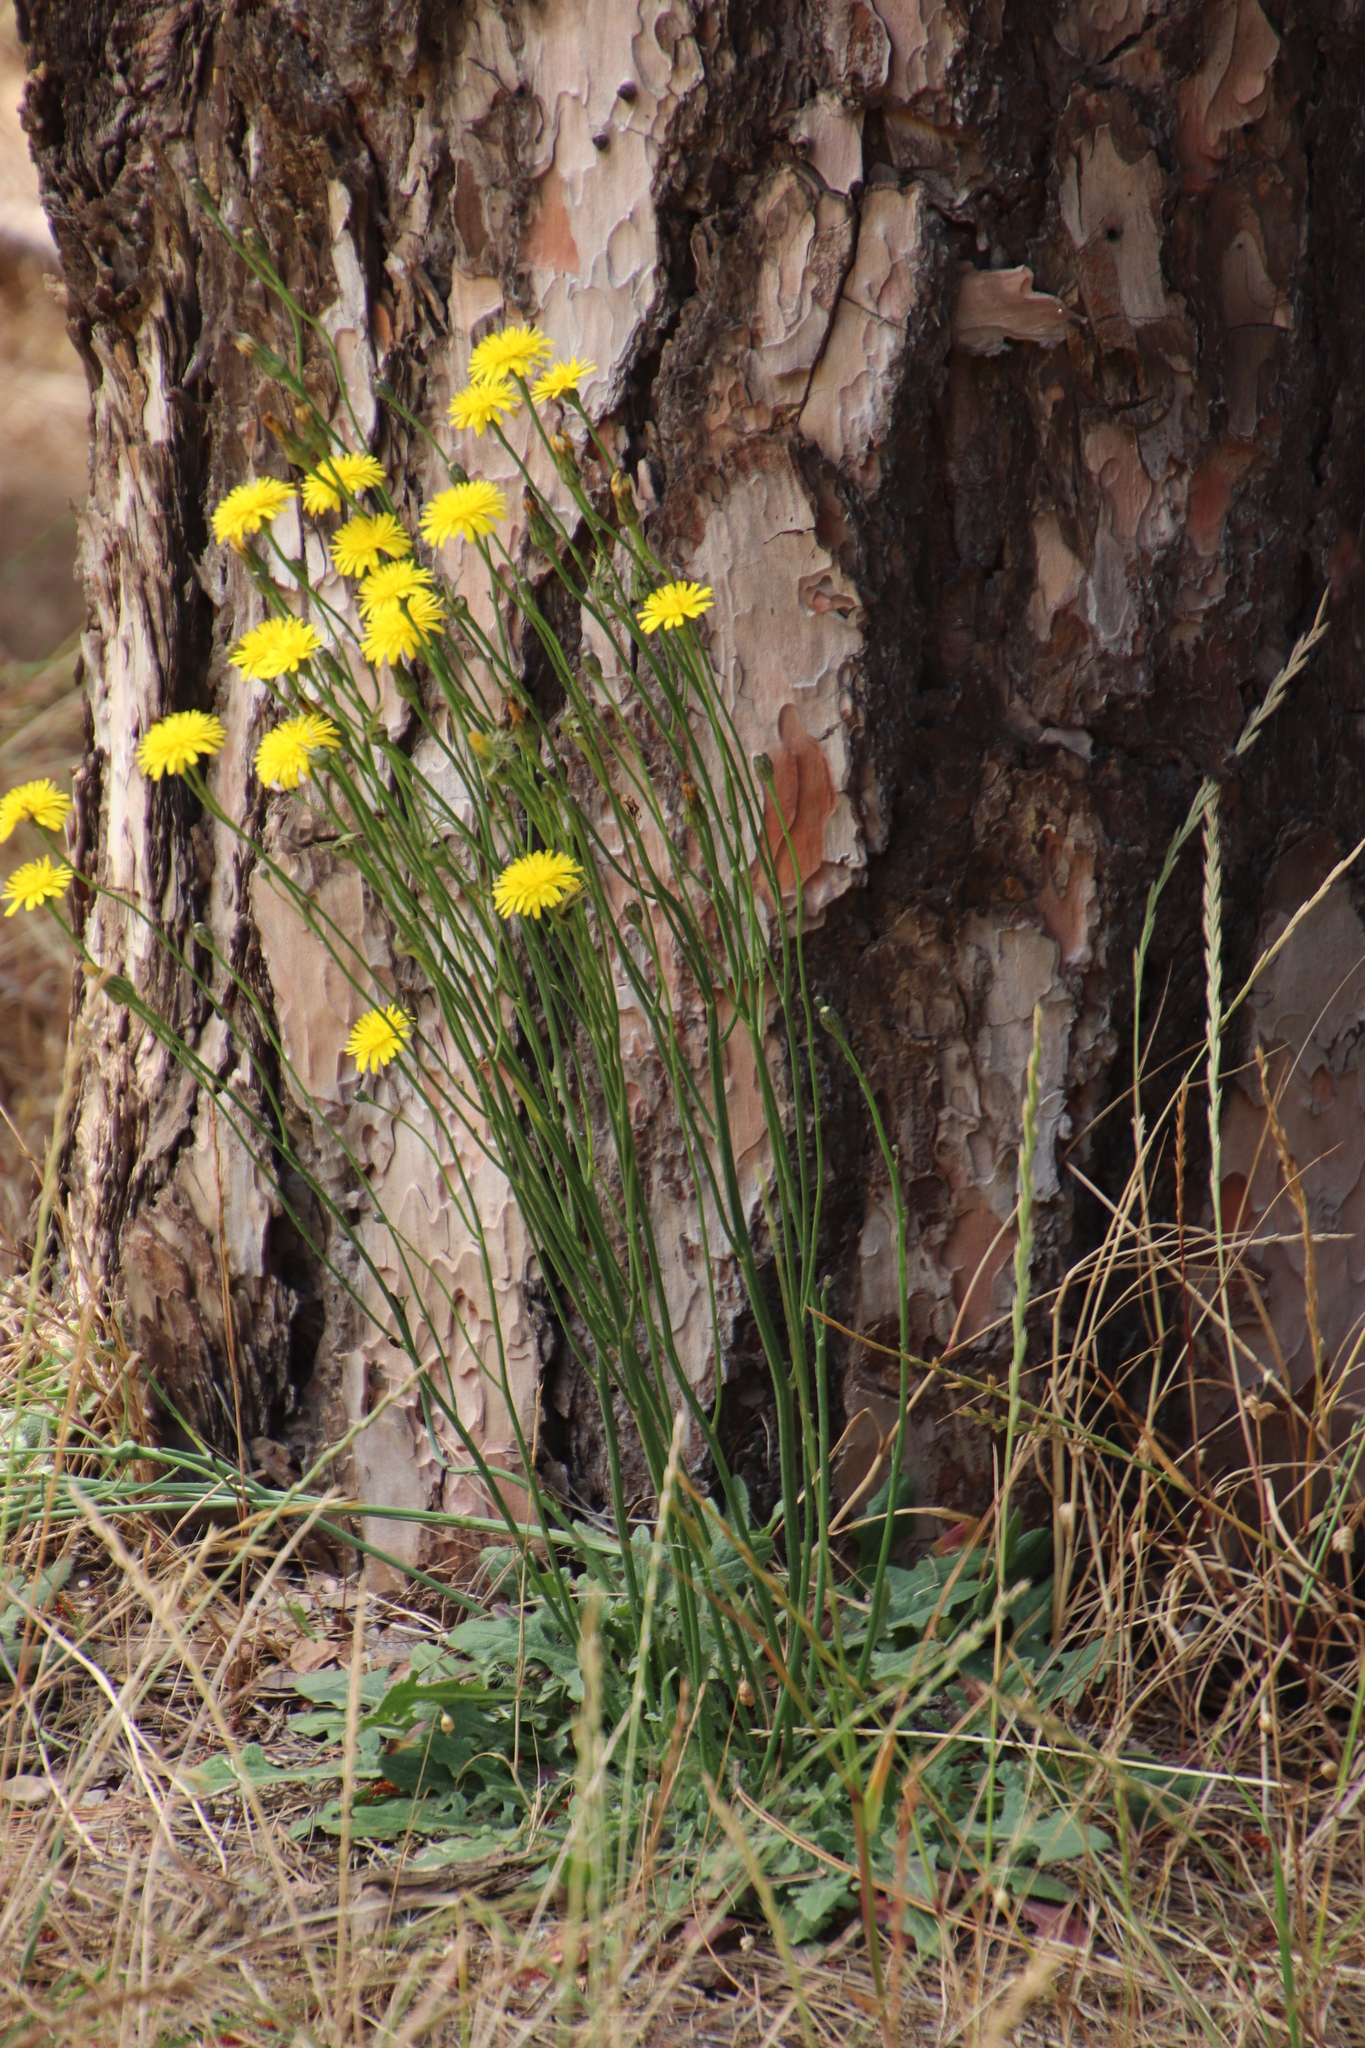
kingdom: Plantae
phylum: Tracheophyta
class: Magnoliopsida
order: Asterales
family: Asteraceae
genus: Hypochaeris
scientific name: Hypochaeris radicata
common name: Flatweed
